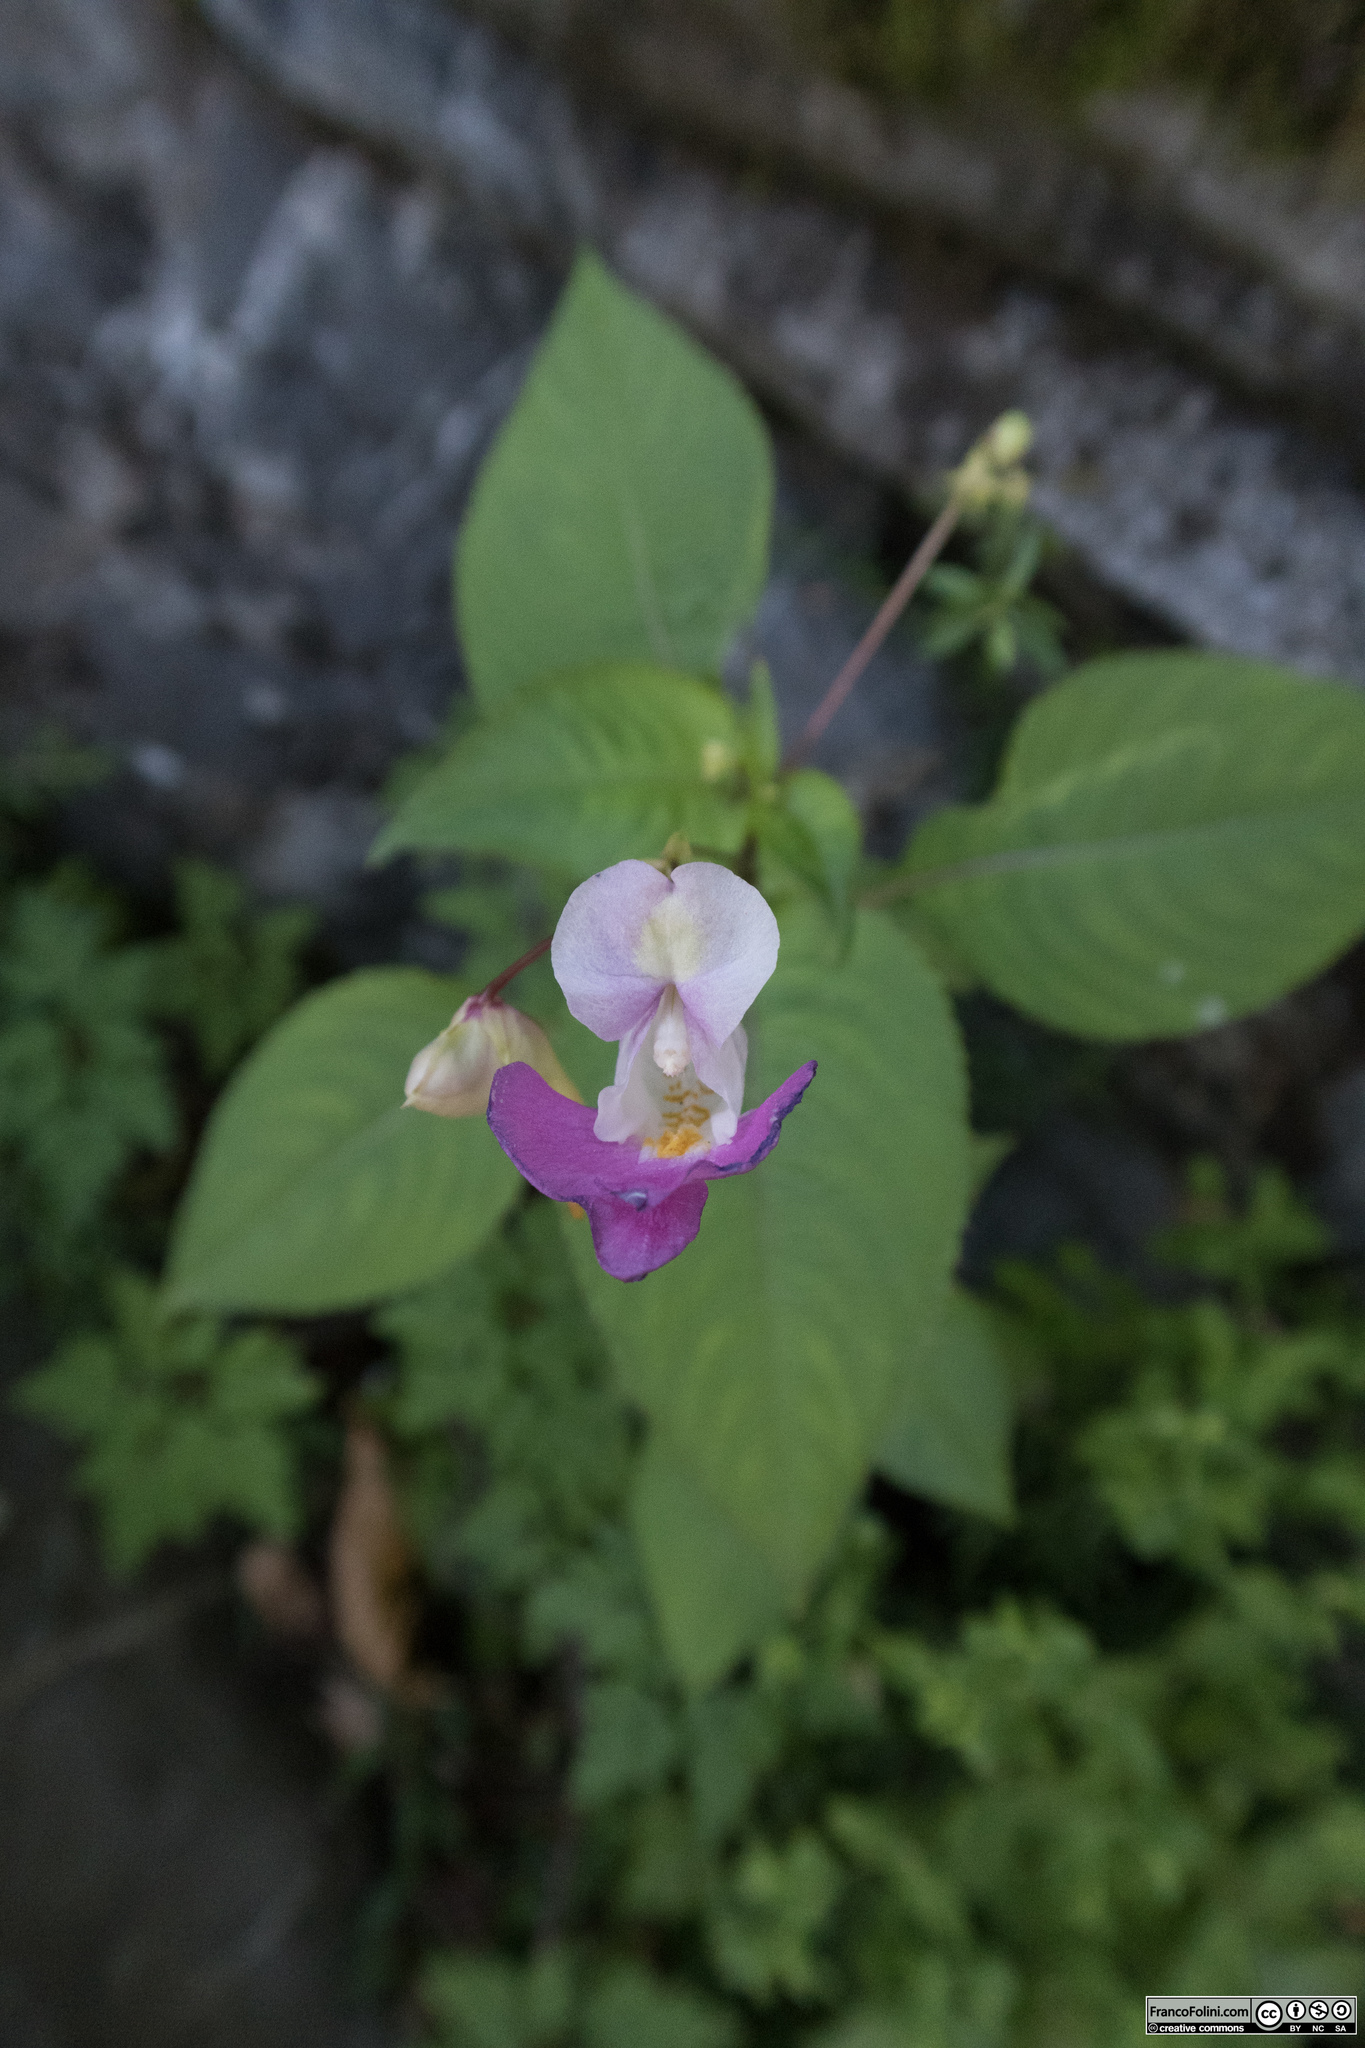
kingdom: Plantae
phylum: Tracheophyta
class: Magnoliopsida
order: Ericales
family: Balsaminaceae
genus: Impatiens
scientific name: Impatiens balfourii
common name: Balfour's touch-me-not
